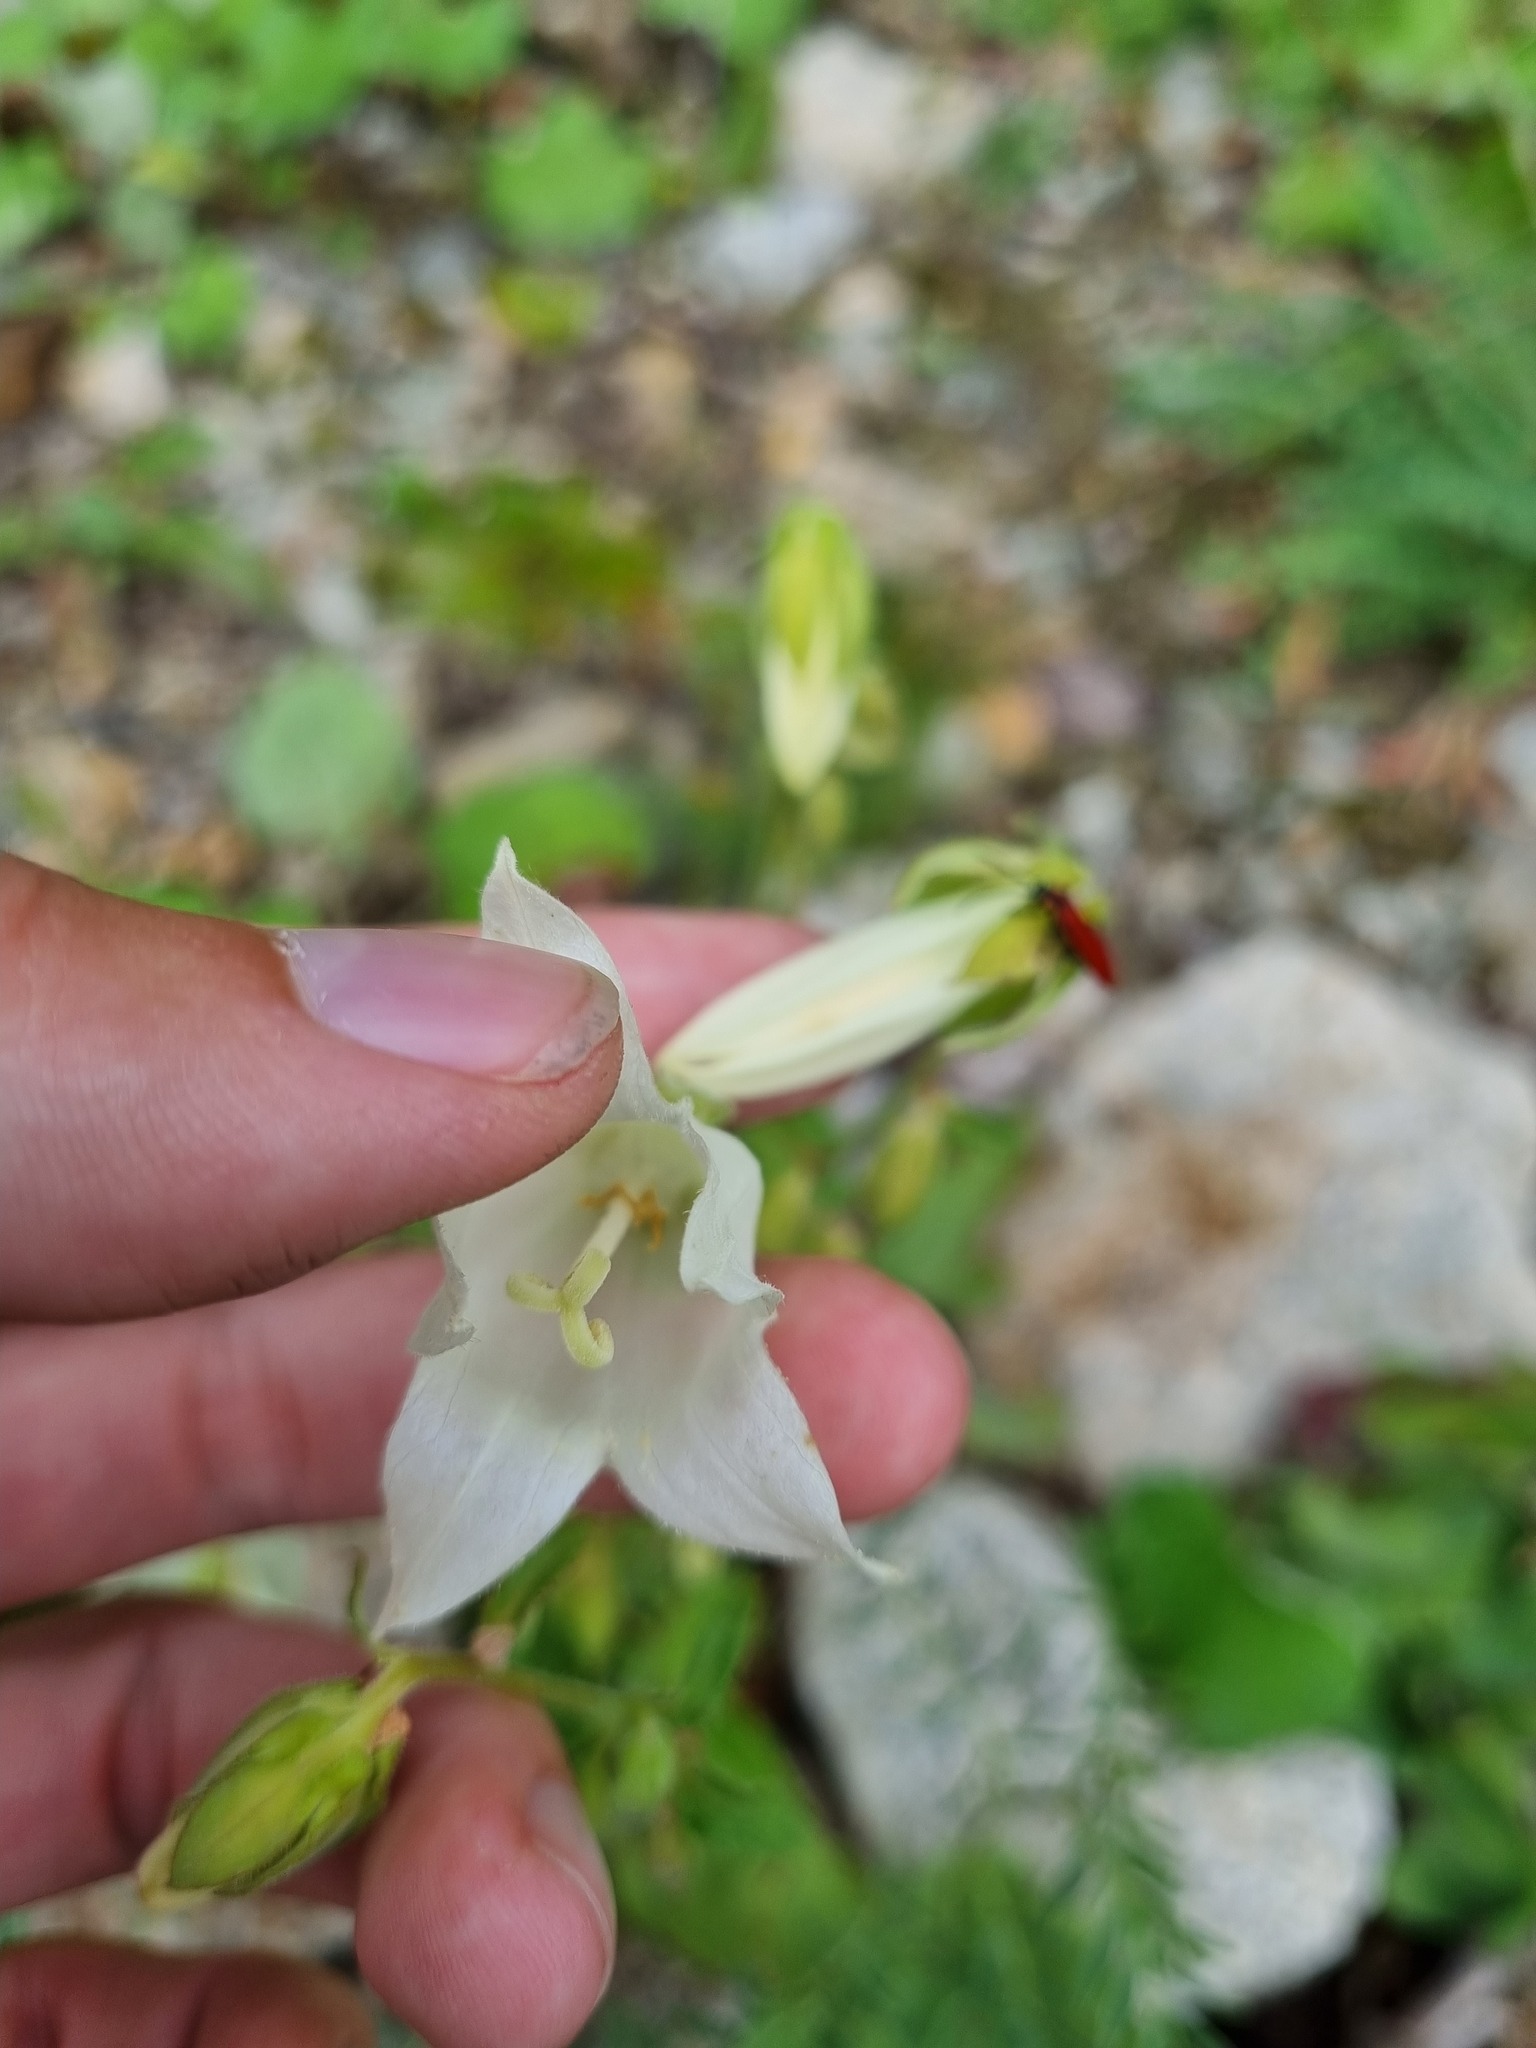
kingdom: Plantae
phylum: Tracheophyta
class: Magnoliopsida
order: Asterales
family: Campanulaceae
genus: Campanula
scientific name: Campanula alliariifolia
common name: Cornish bellflower
